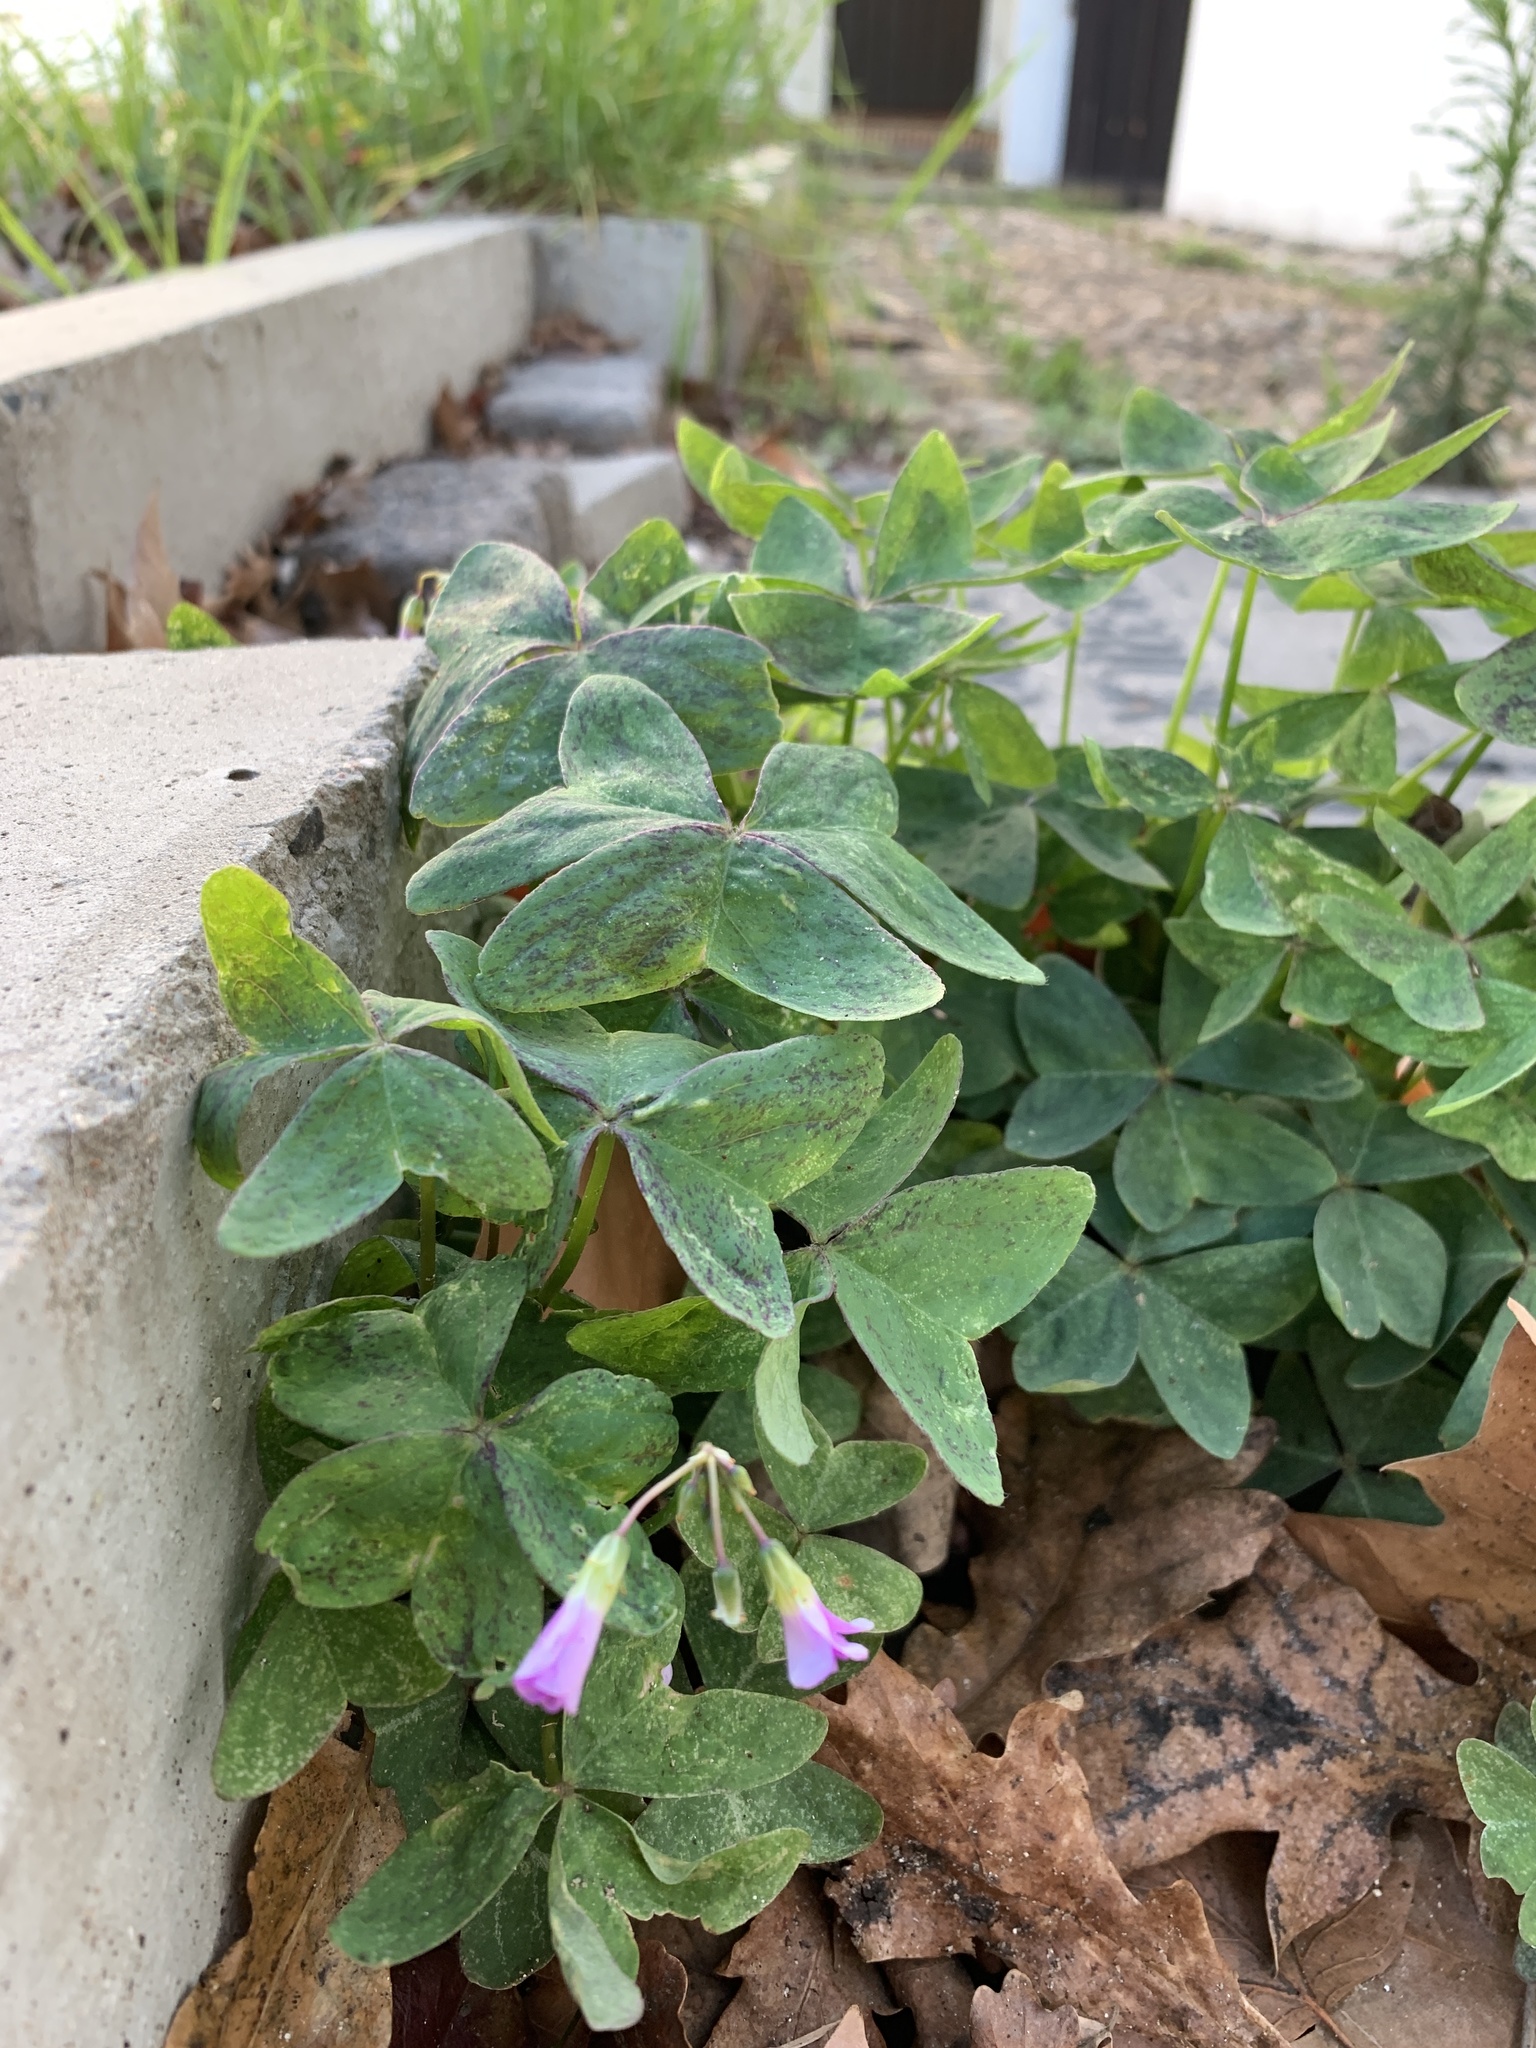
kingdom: Plantae
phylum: Tracheophyta
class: Magnoliopsida
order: Oxalidales
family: Oxalidaceae
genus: Oxalis
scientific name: Oxalis latifolia
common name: Garden pink-sorrel
